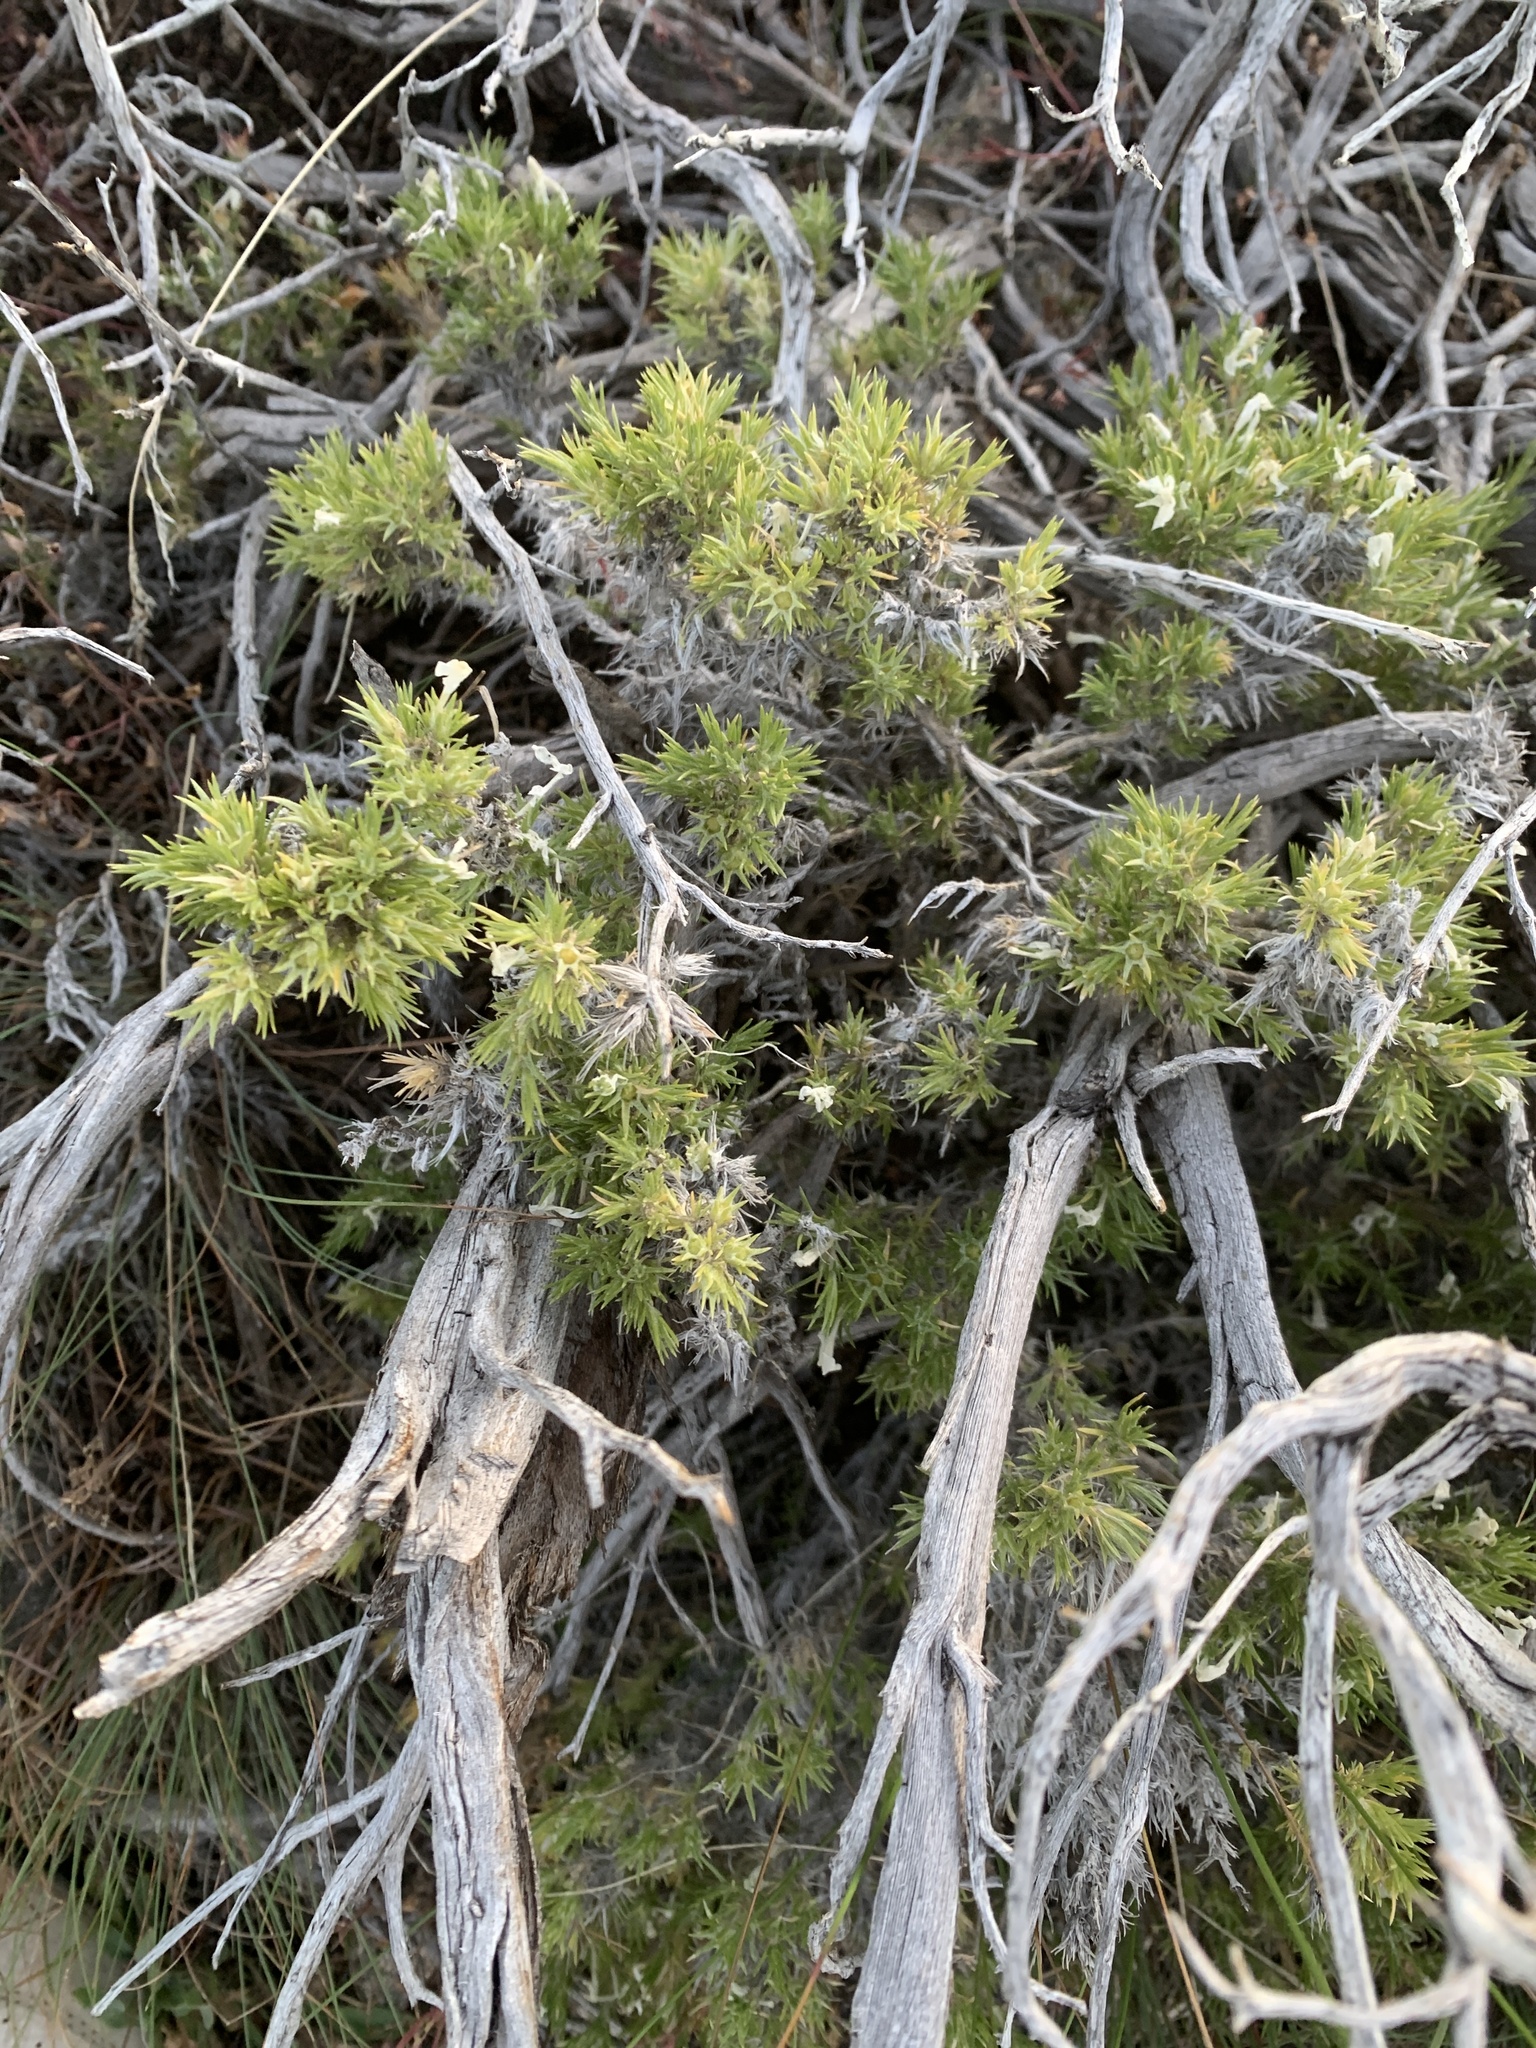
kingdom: Plantae
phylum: Tracheophyta
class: Magnoliopsida
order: Ericales
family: Polemoniaceae
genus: Phlox
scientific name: Phlox hoodii
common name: Moss phlox
